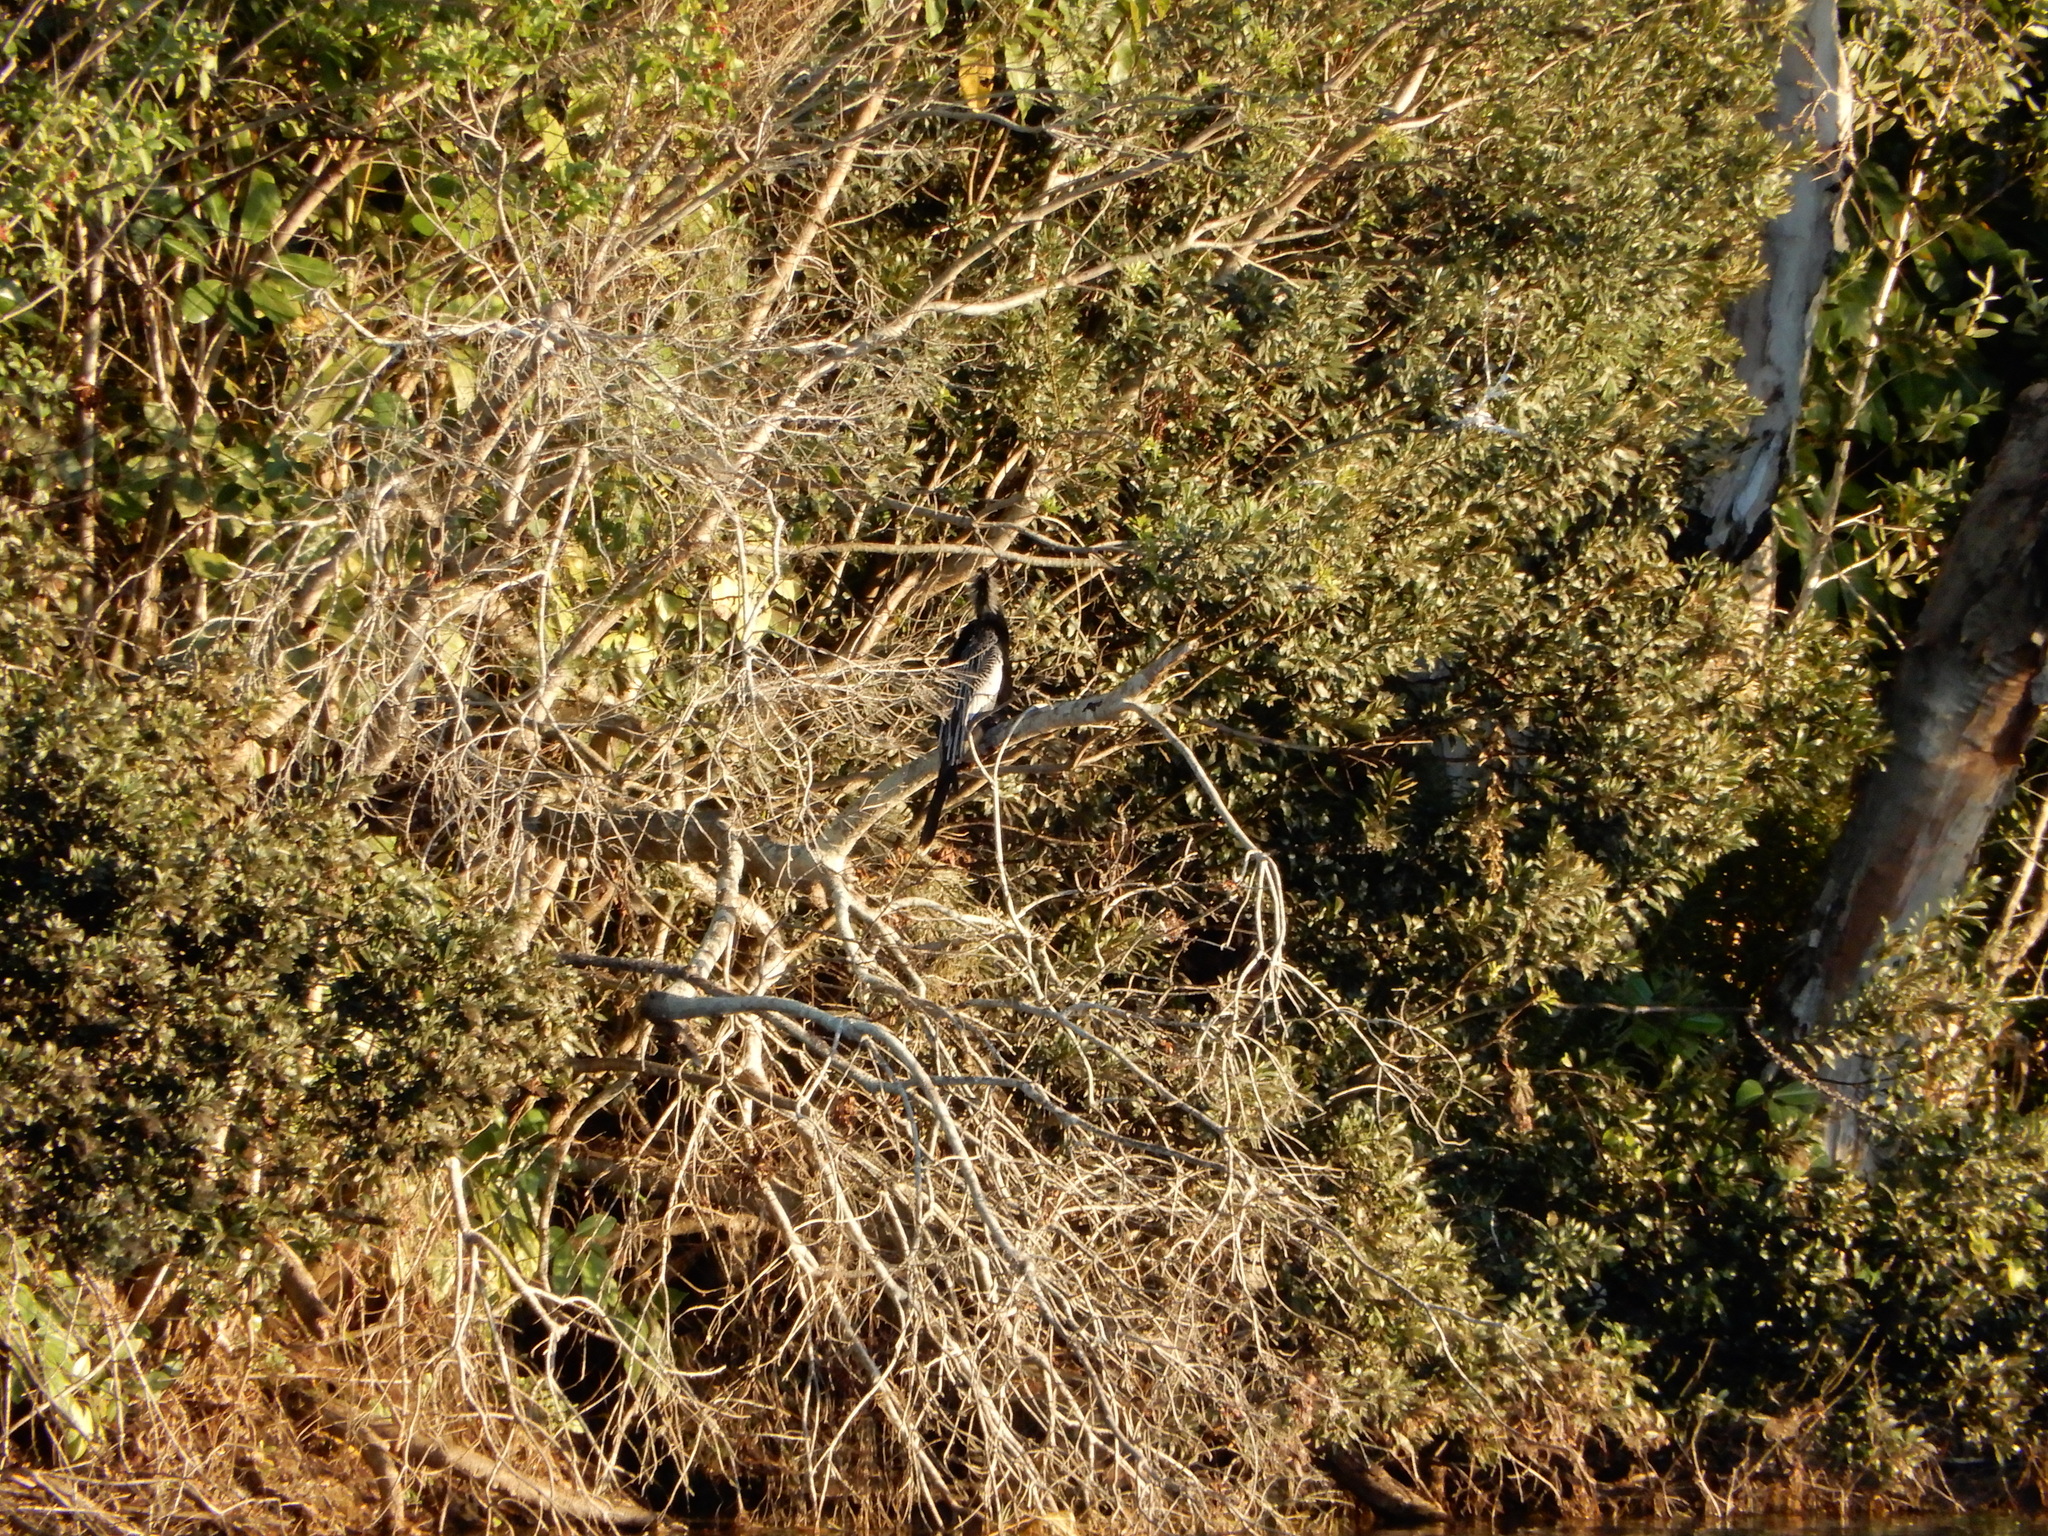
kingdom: Animalia
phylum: Chordata
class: Aves
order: Suliformes
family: Anhingidae
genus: Anhinga
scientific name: Anhinga anhinga
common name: Anhinga
